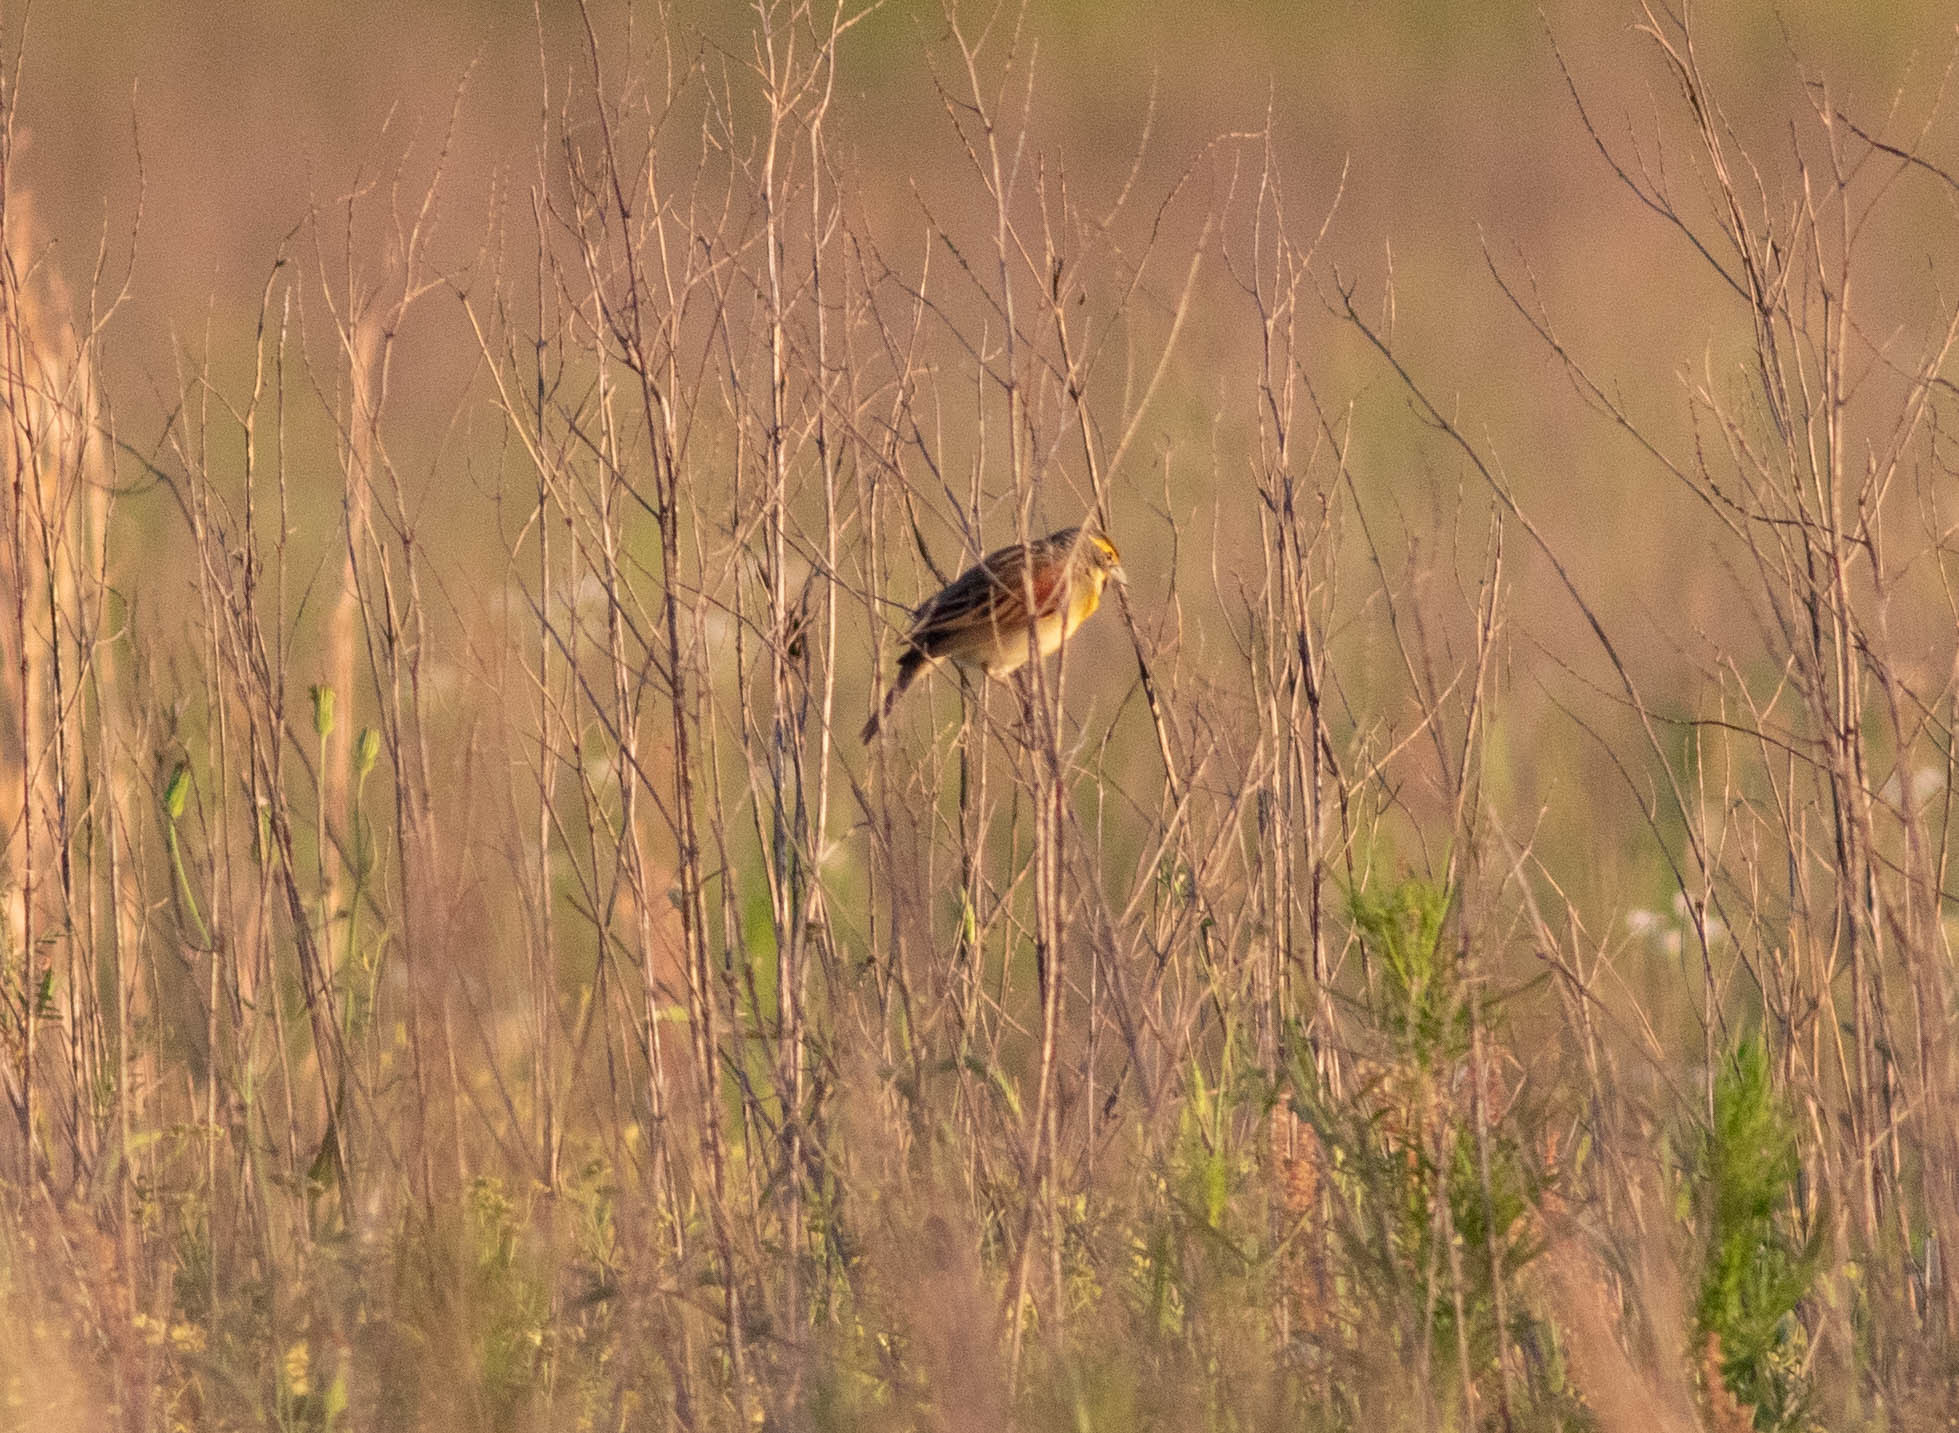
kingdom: Animalia
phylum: Chordata
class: Aves
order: Passeriformes
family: Cardinalidae
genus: Spiza
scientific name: Spiza americana
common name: Dickcissel
